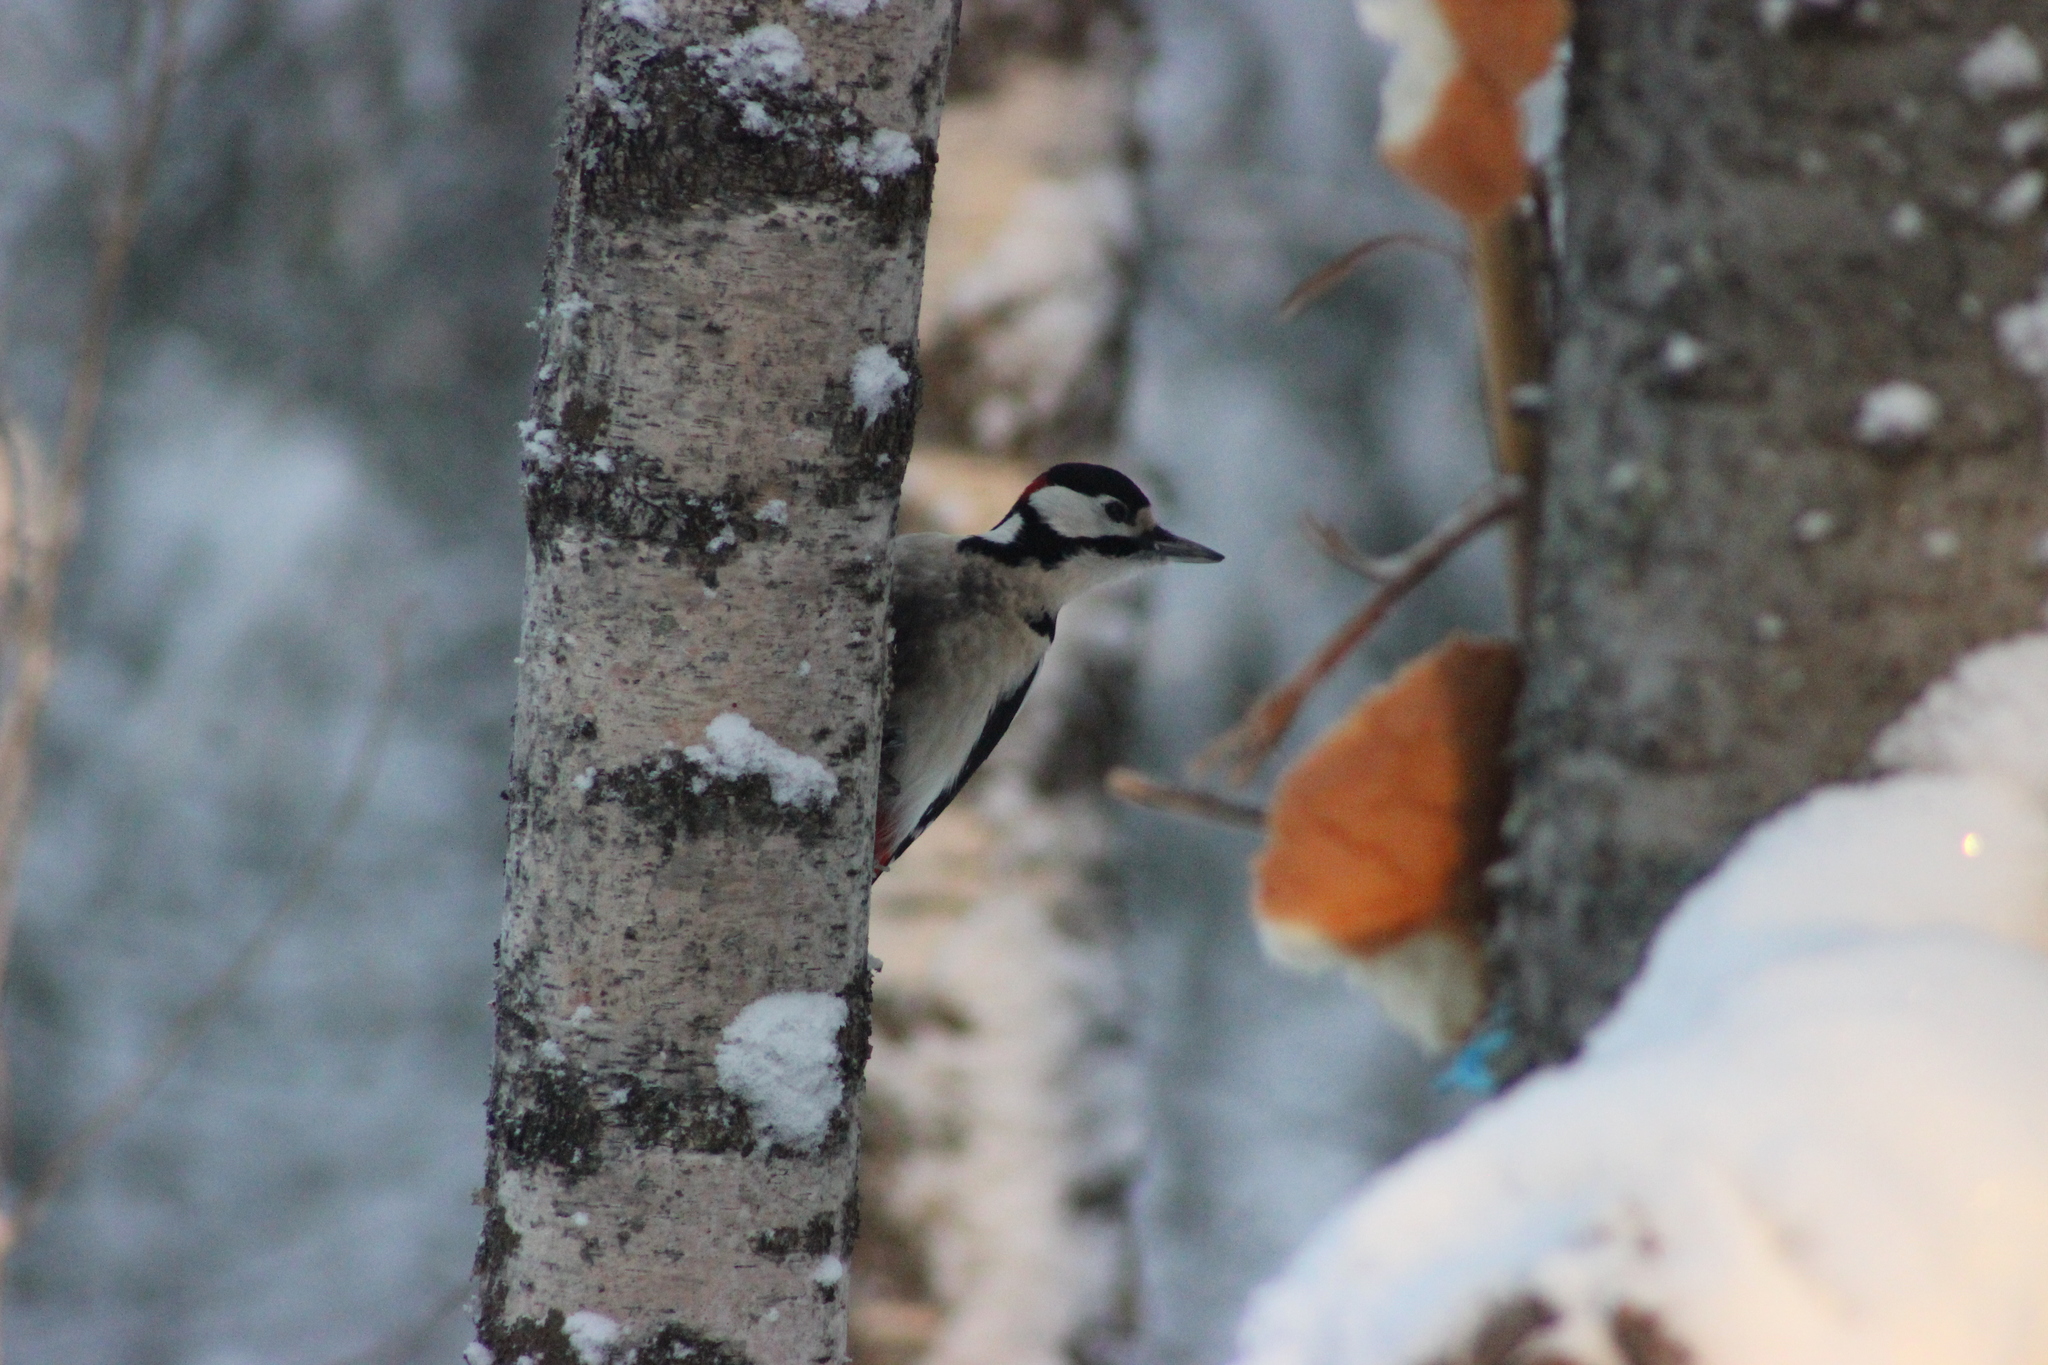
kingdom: Animalia
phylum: Chordata
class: Aves
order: Piciformes
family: Picidae
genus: Dendrocopos
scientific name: Dendrocopos major
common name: Great spotted woodpecker
